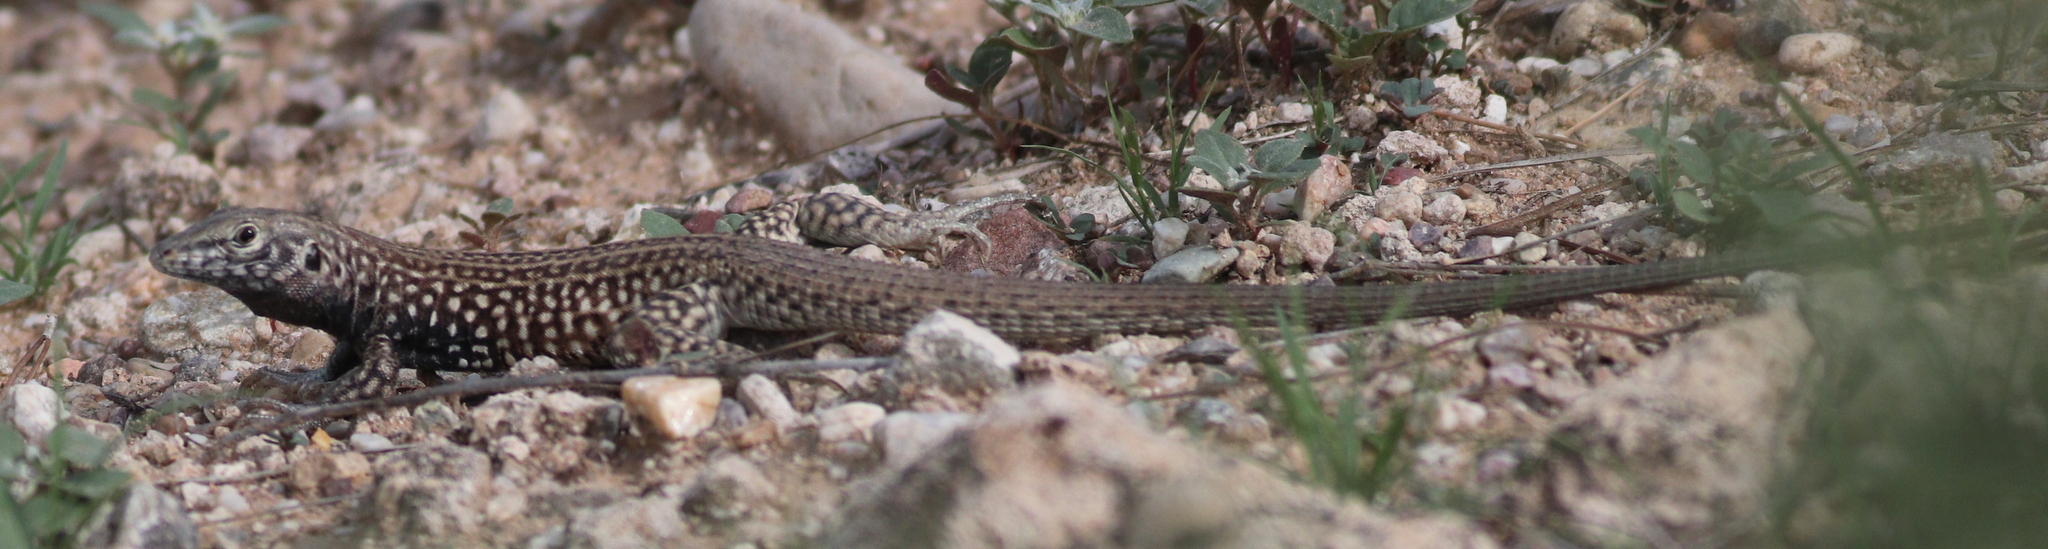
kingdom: Animalia
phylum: Chordata
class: Squamata
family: Teiidae
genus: Aspidoscelis
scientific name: Aspidoscelis tigris
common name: Tiger whiptail
